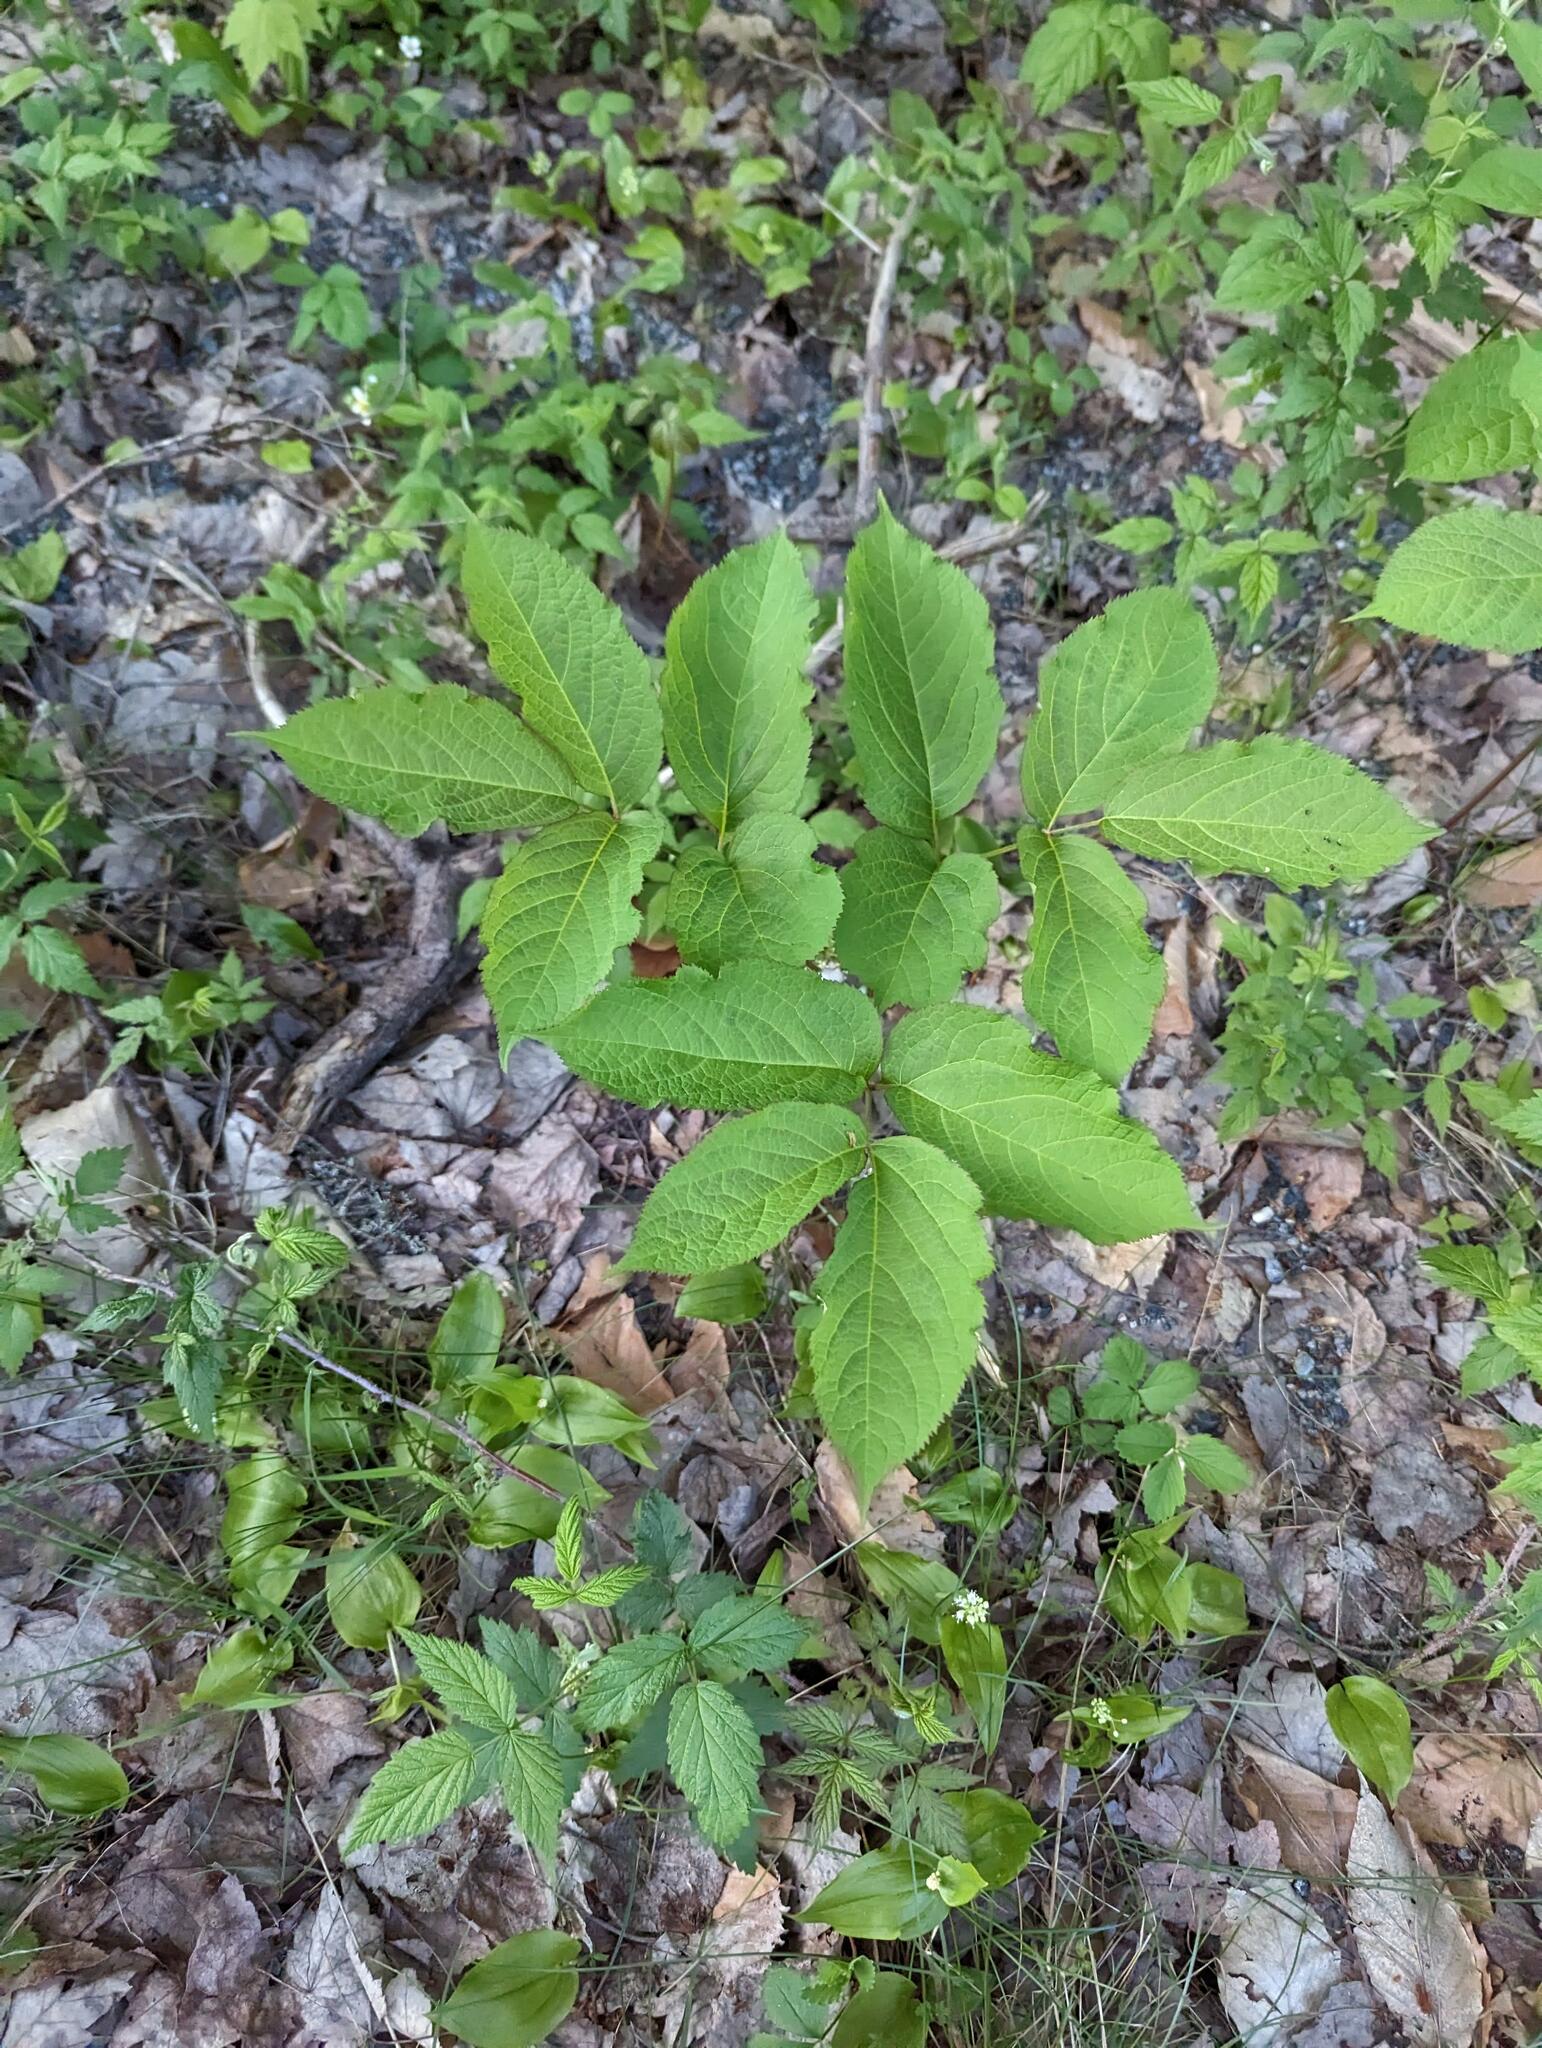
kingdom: Plantae
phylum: Tracheophyta
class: Magnoliopsida
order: Apiales
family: Araliaceae
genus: Aralia
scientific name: Aralia nudicaulis
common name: Wild sarsaparilla
